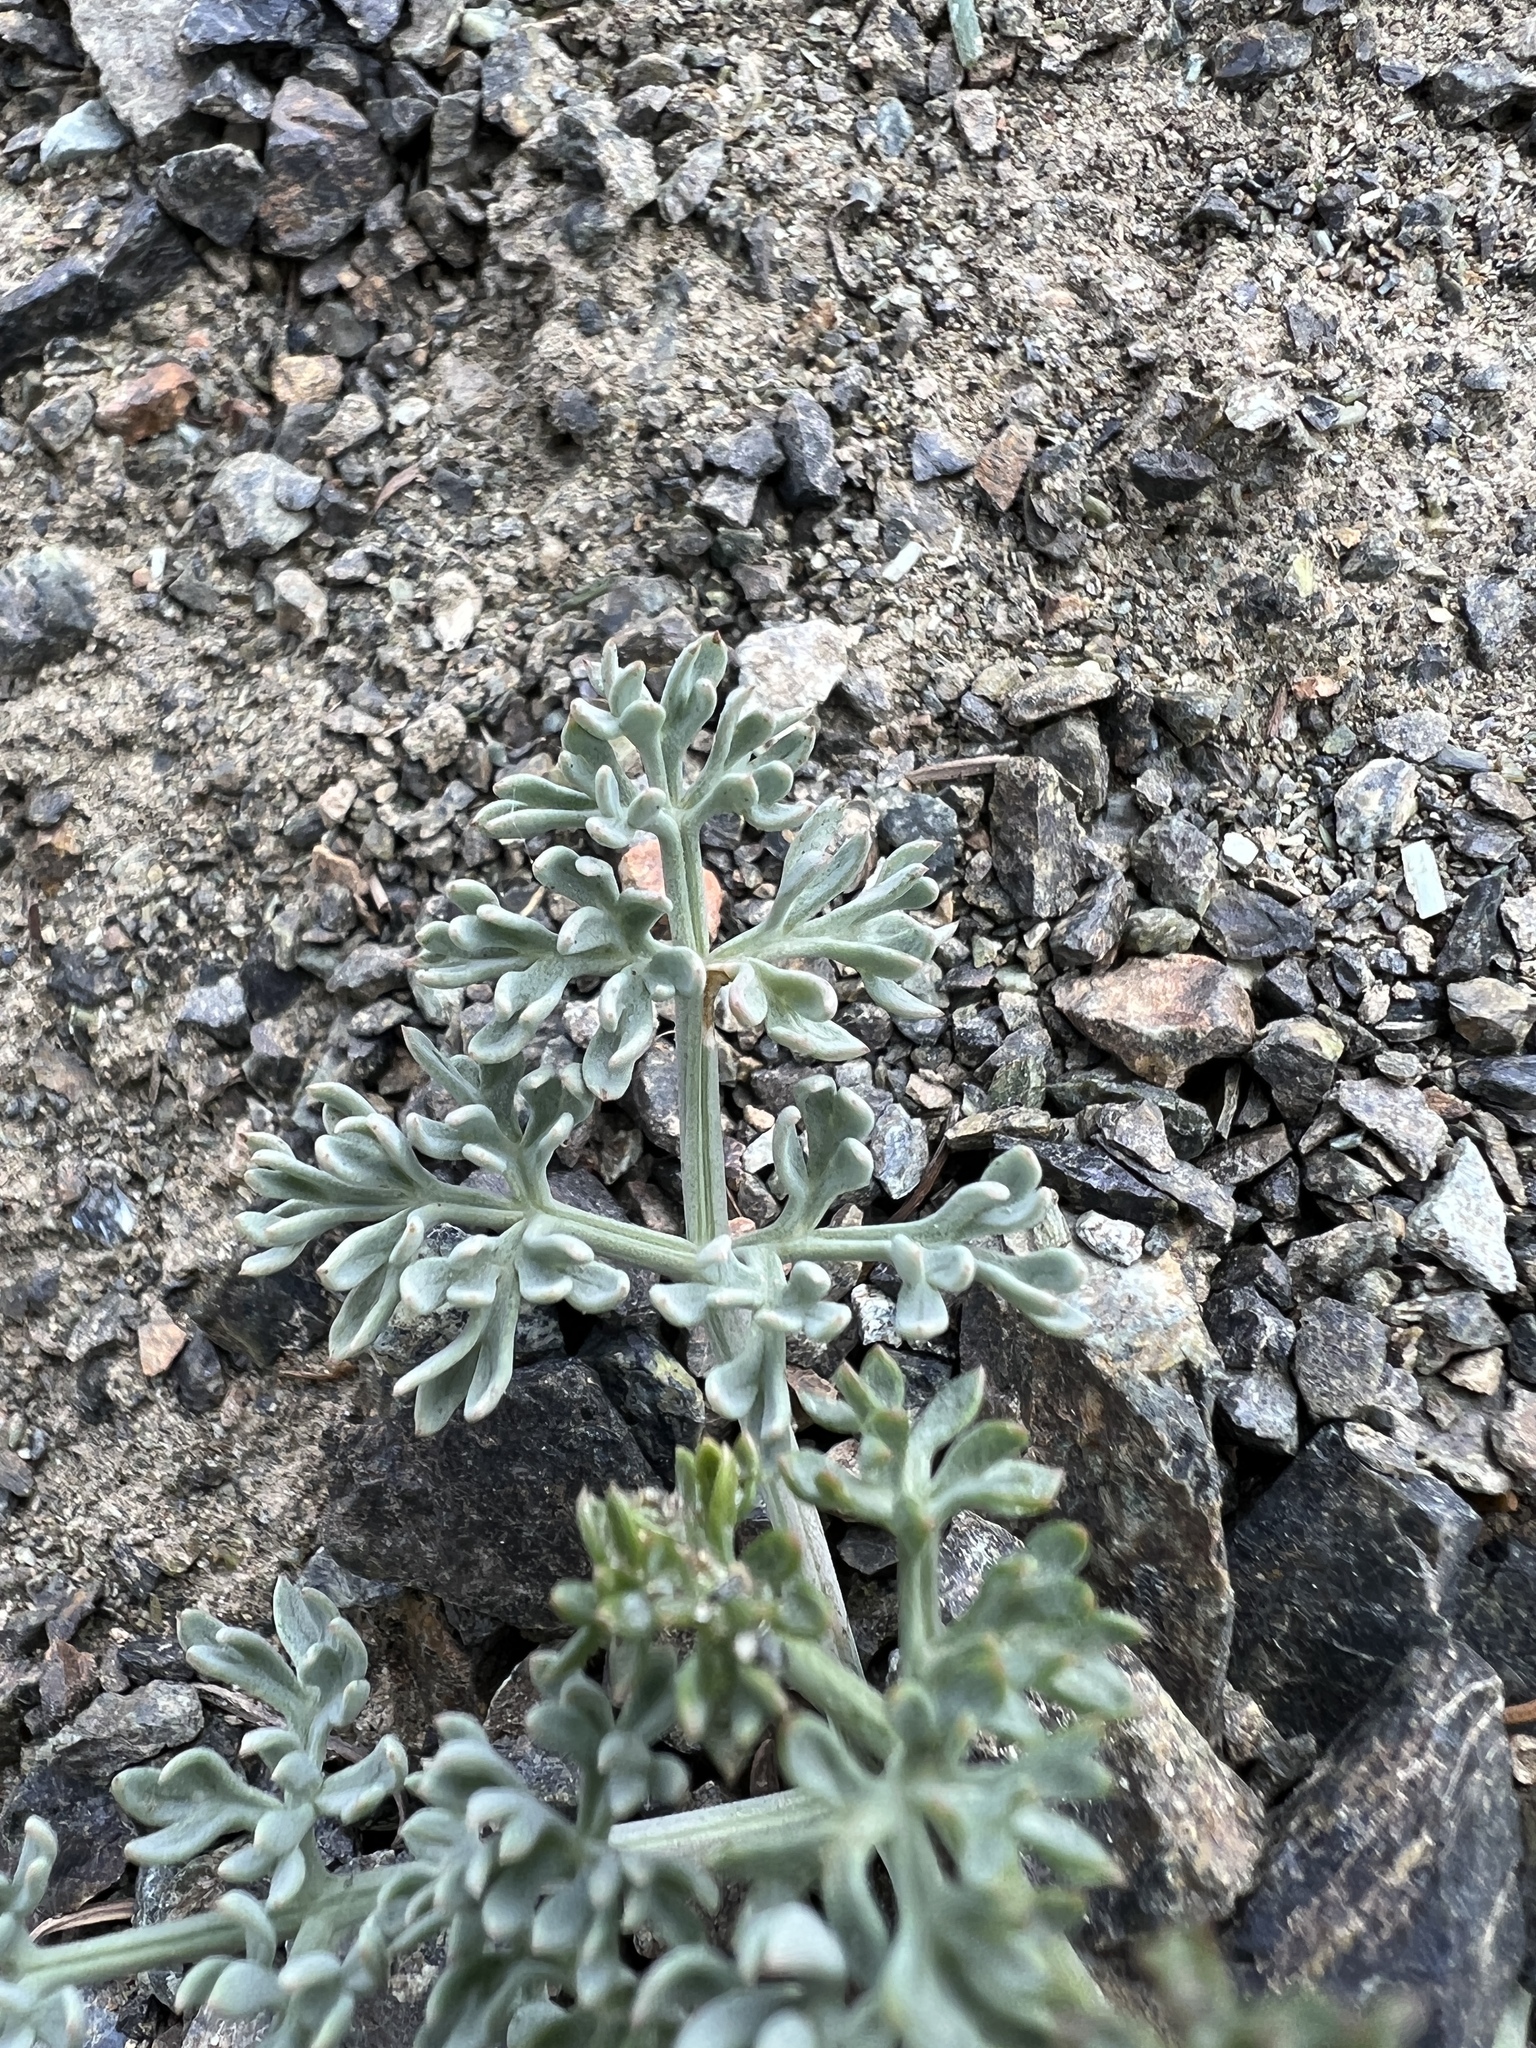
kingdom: Plantae
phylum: Tracheophyta
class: Magnoliopsida
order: Apiales
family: Apiaceae
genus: Lomatium
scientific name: Lomatium cuspidatum
